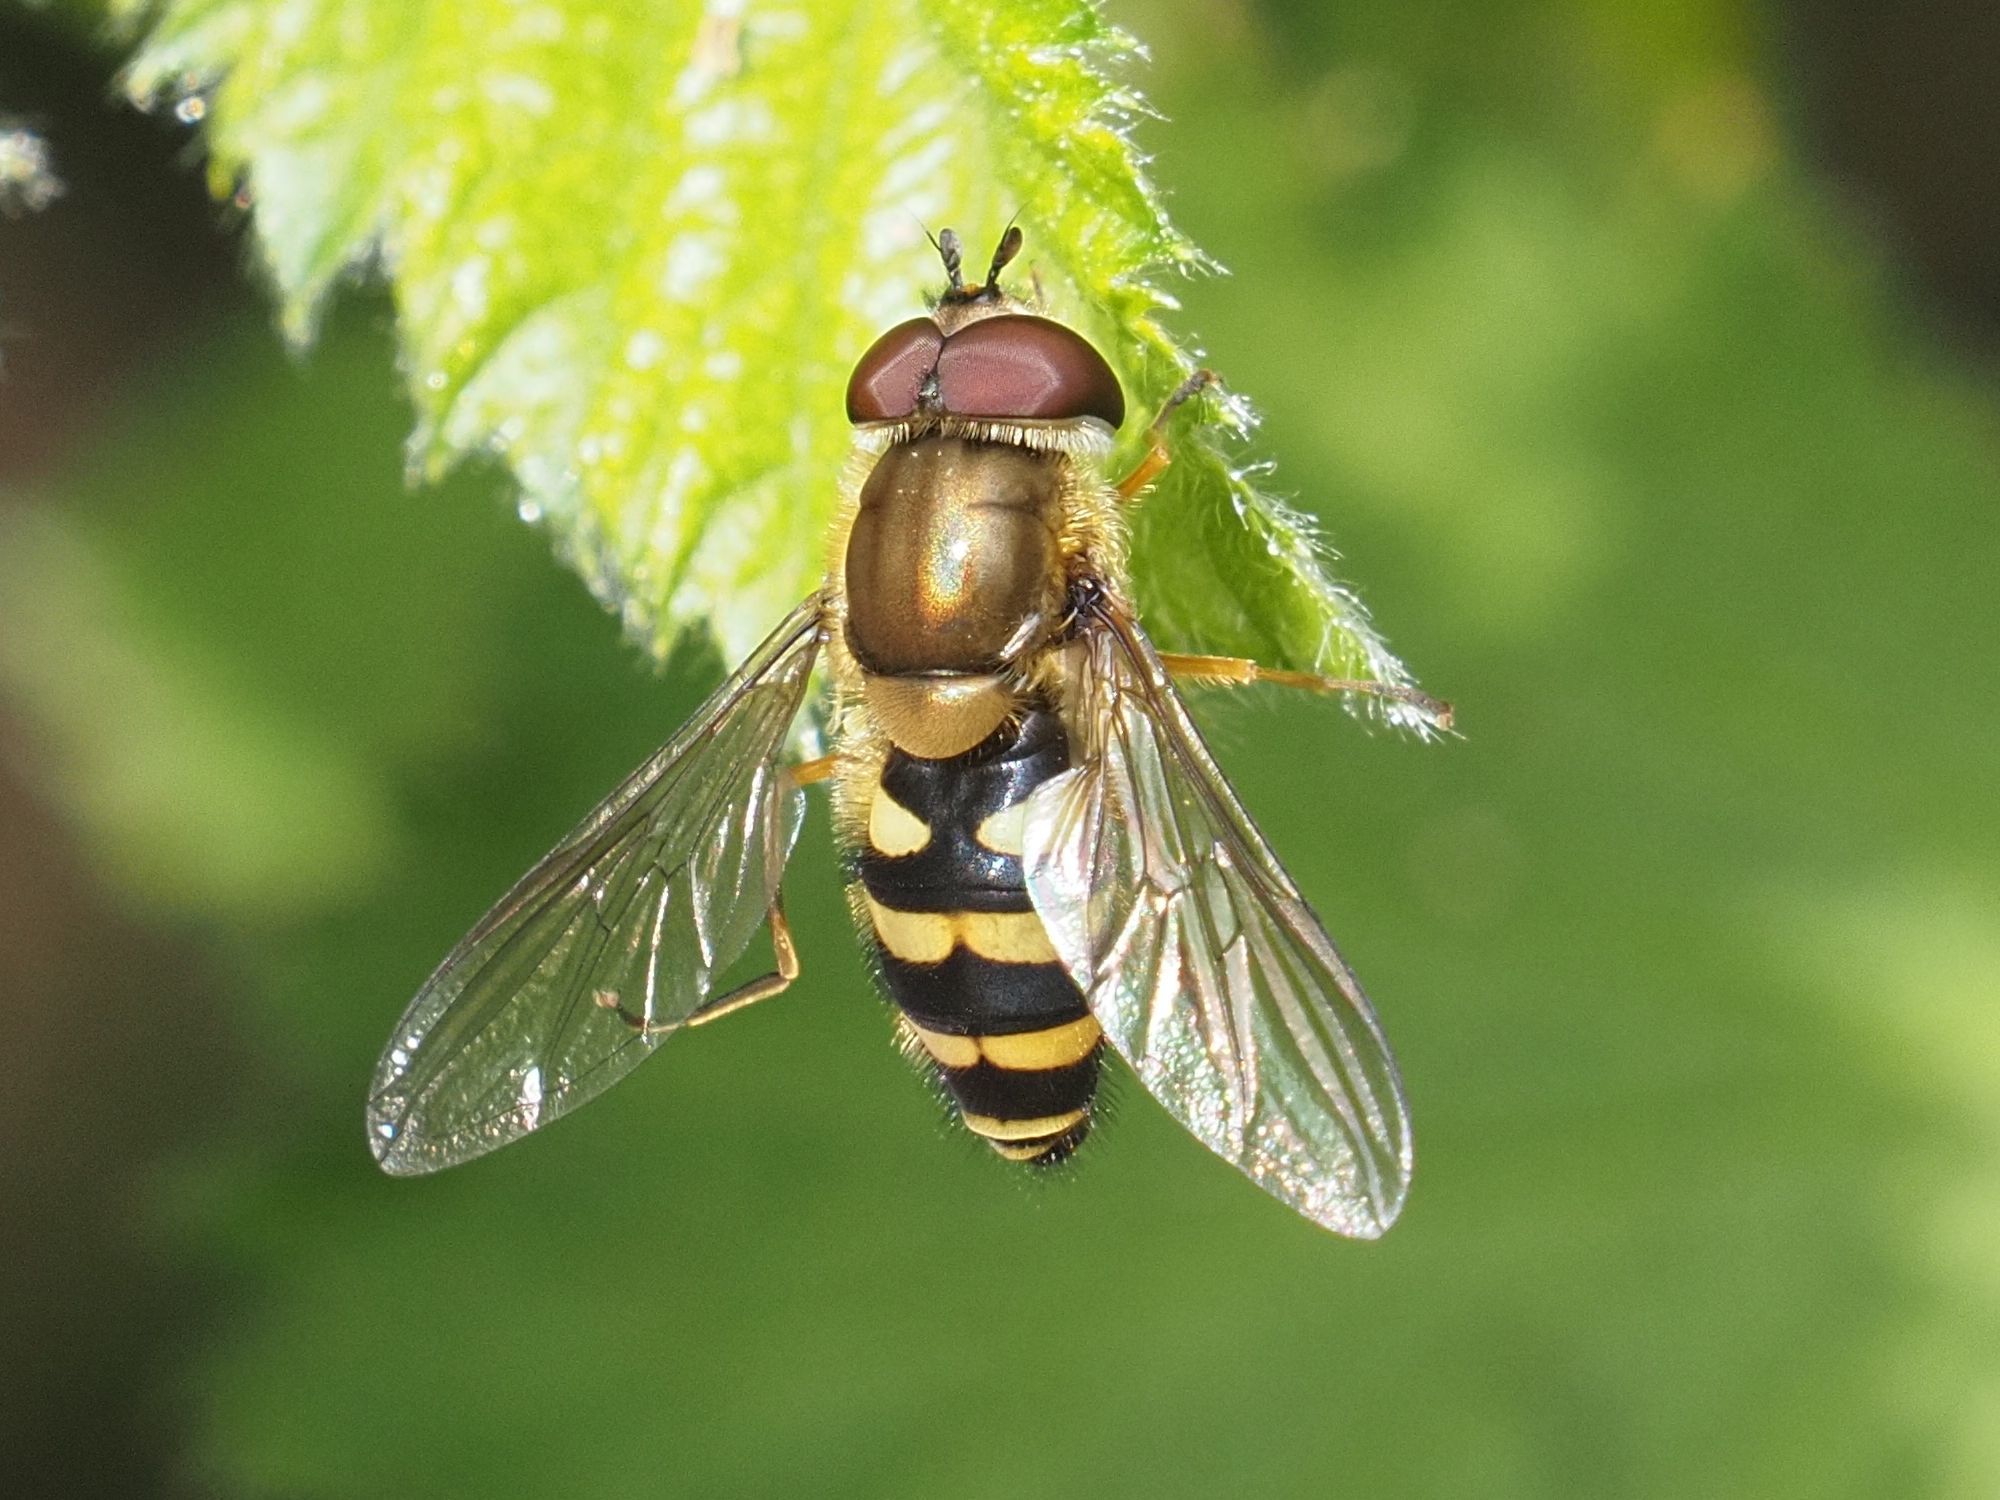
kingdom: Animalia
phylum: Arthropoda
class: Insecta
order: Diptera
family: Syrphidae
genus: Syrphus
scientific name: Syrphus
